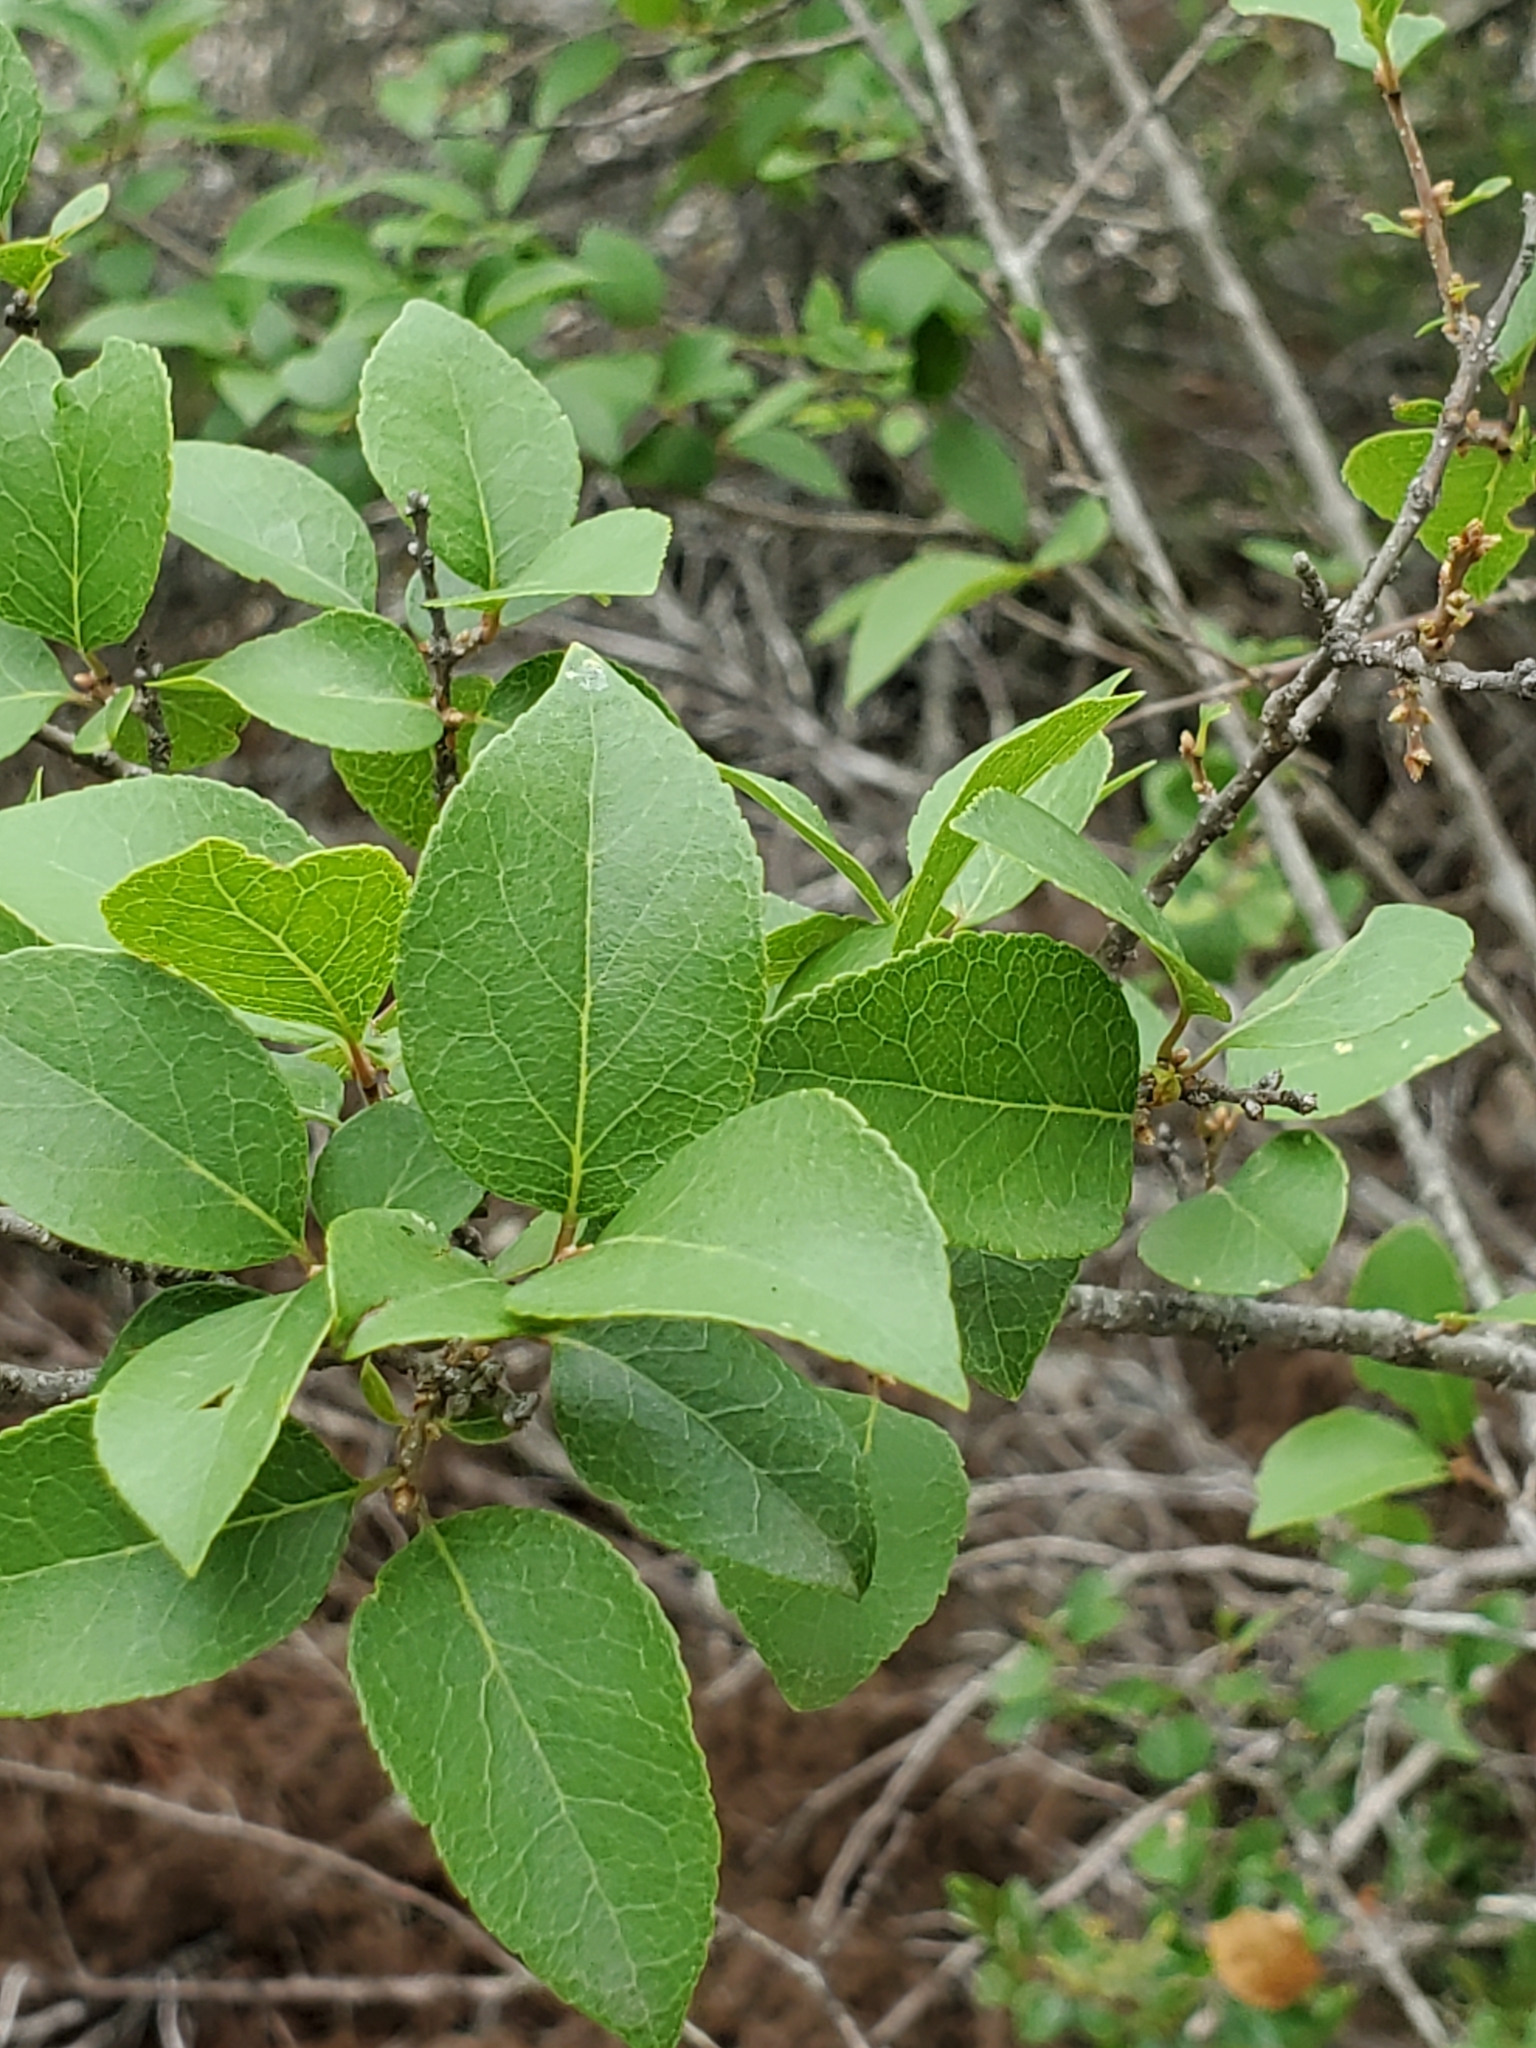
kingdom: Plantae
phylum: Tracheophyta
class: Magnoliopsida
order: Lamiales
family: Oleaceae
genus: Forestiera
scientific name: Forestiera reticulata
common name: Netleaf swamp-privet
